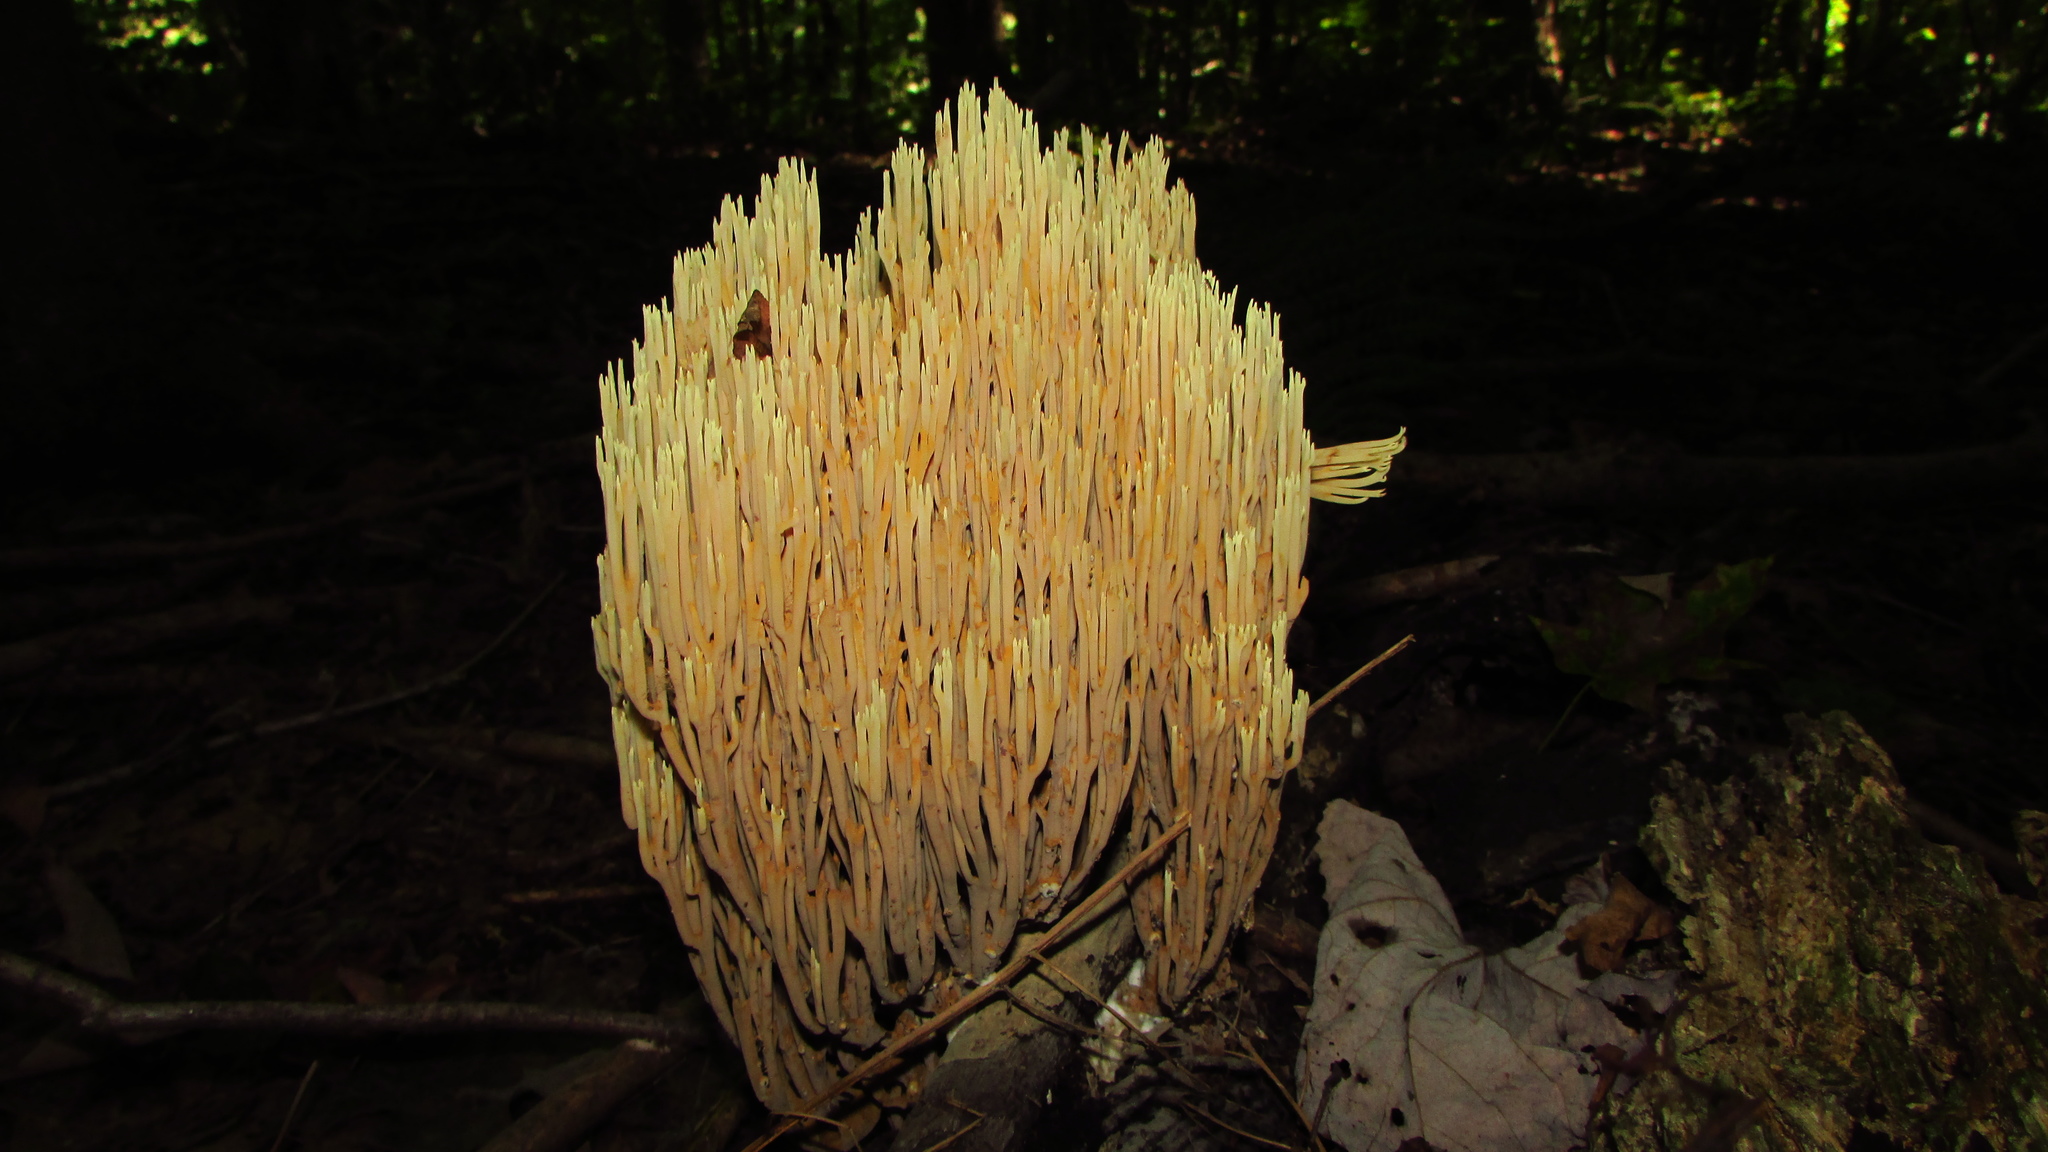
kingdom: Fungi
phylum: Basidiomycota
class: Agaricomycetes
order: Gomphales
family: Gomphaceae
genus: Ramaria
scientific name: Ramaria stricta
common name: Upright coral
